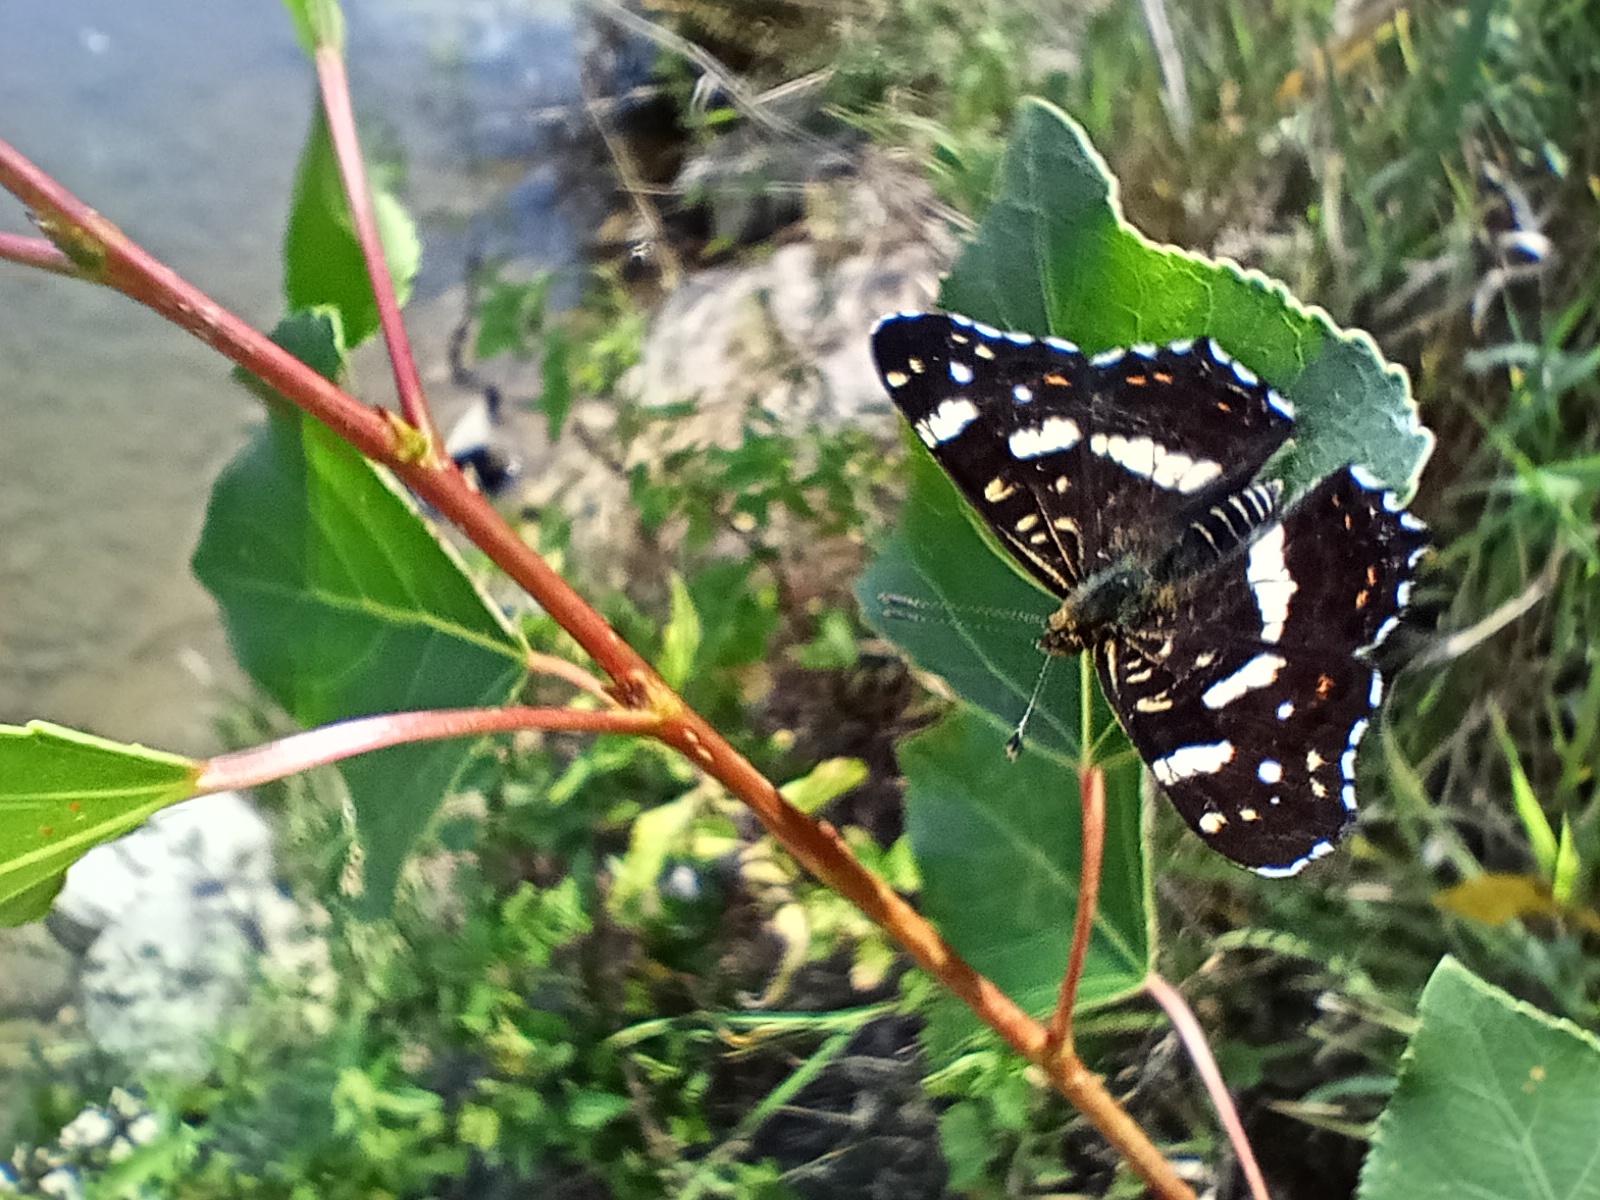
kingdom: Animalia
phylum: Arthropoda
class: Insecta
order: Lepidoptera
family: Nymphalidae
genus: Araschnia
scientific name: Araschnia levana
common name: Map butterfly
